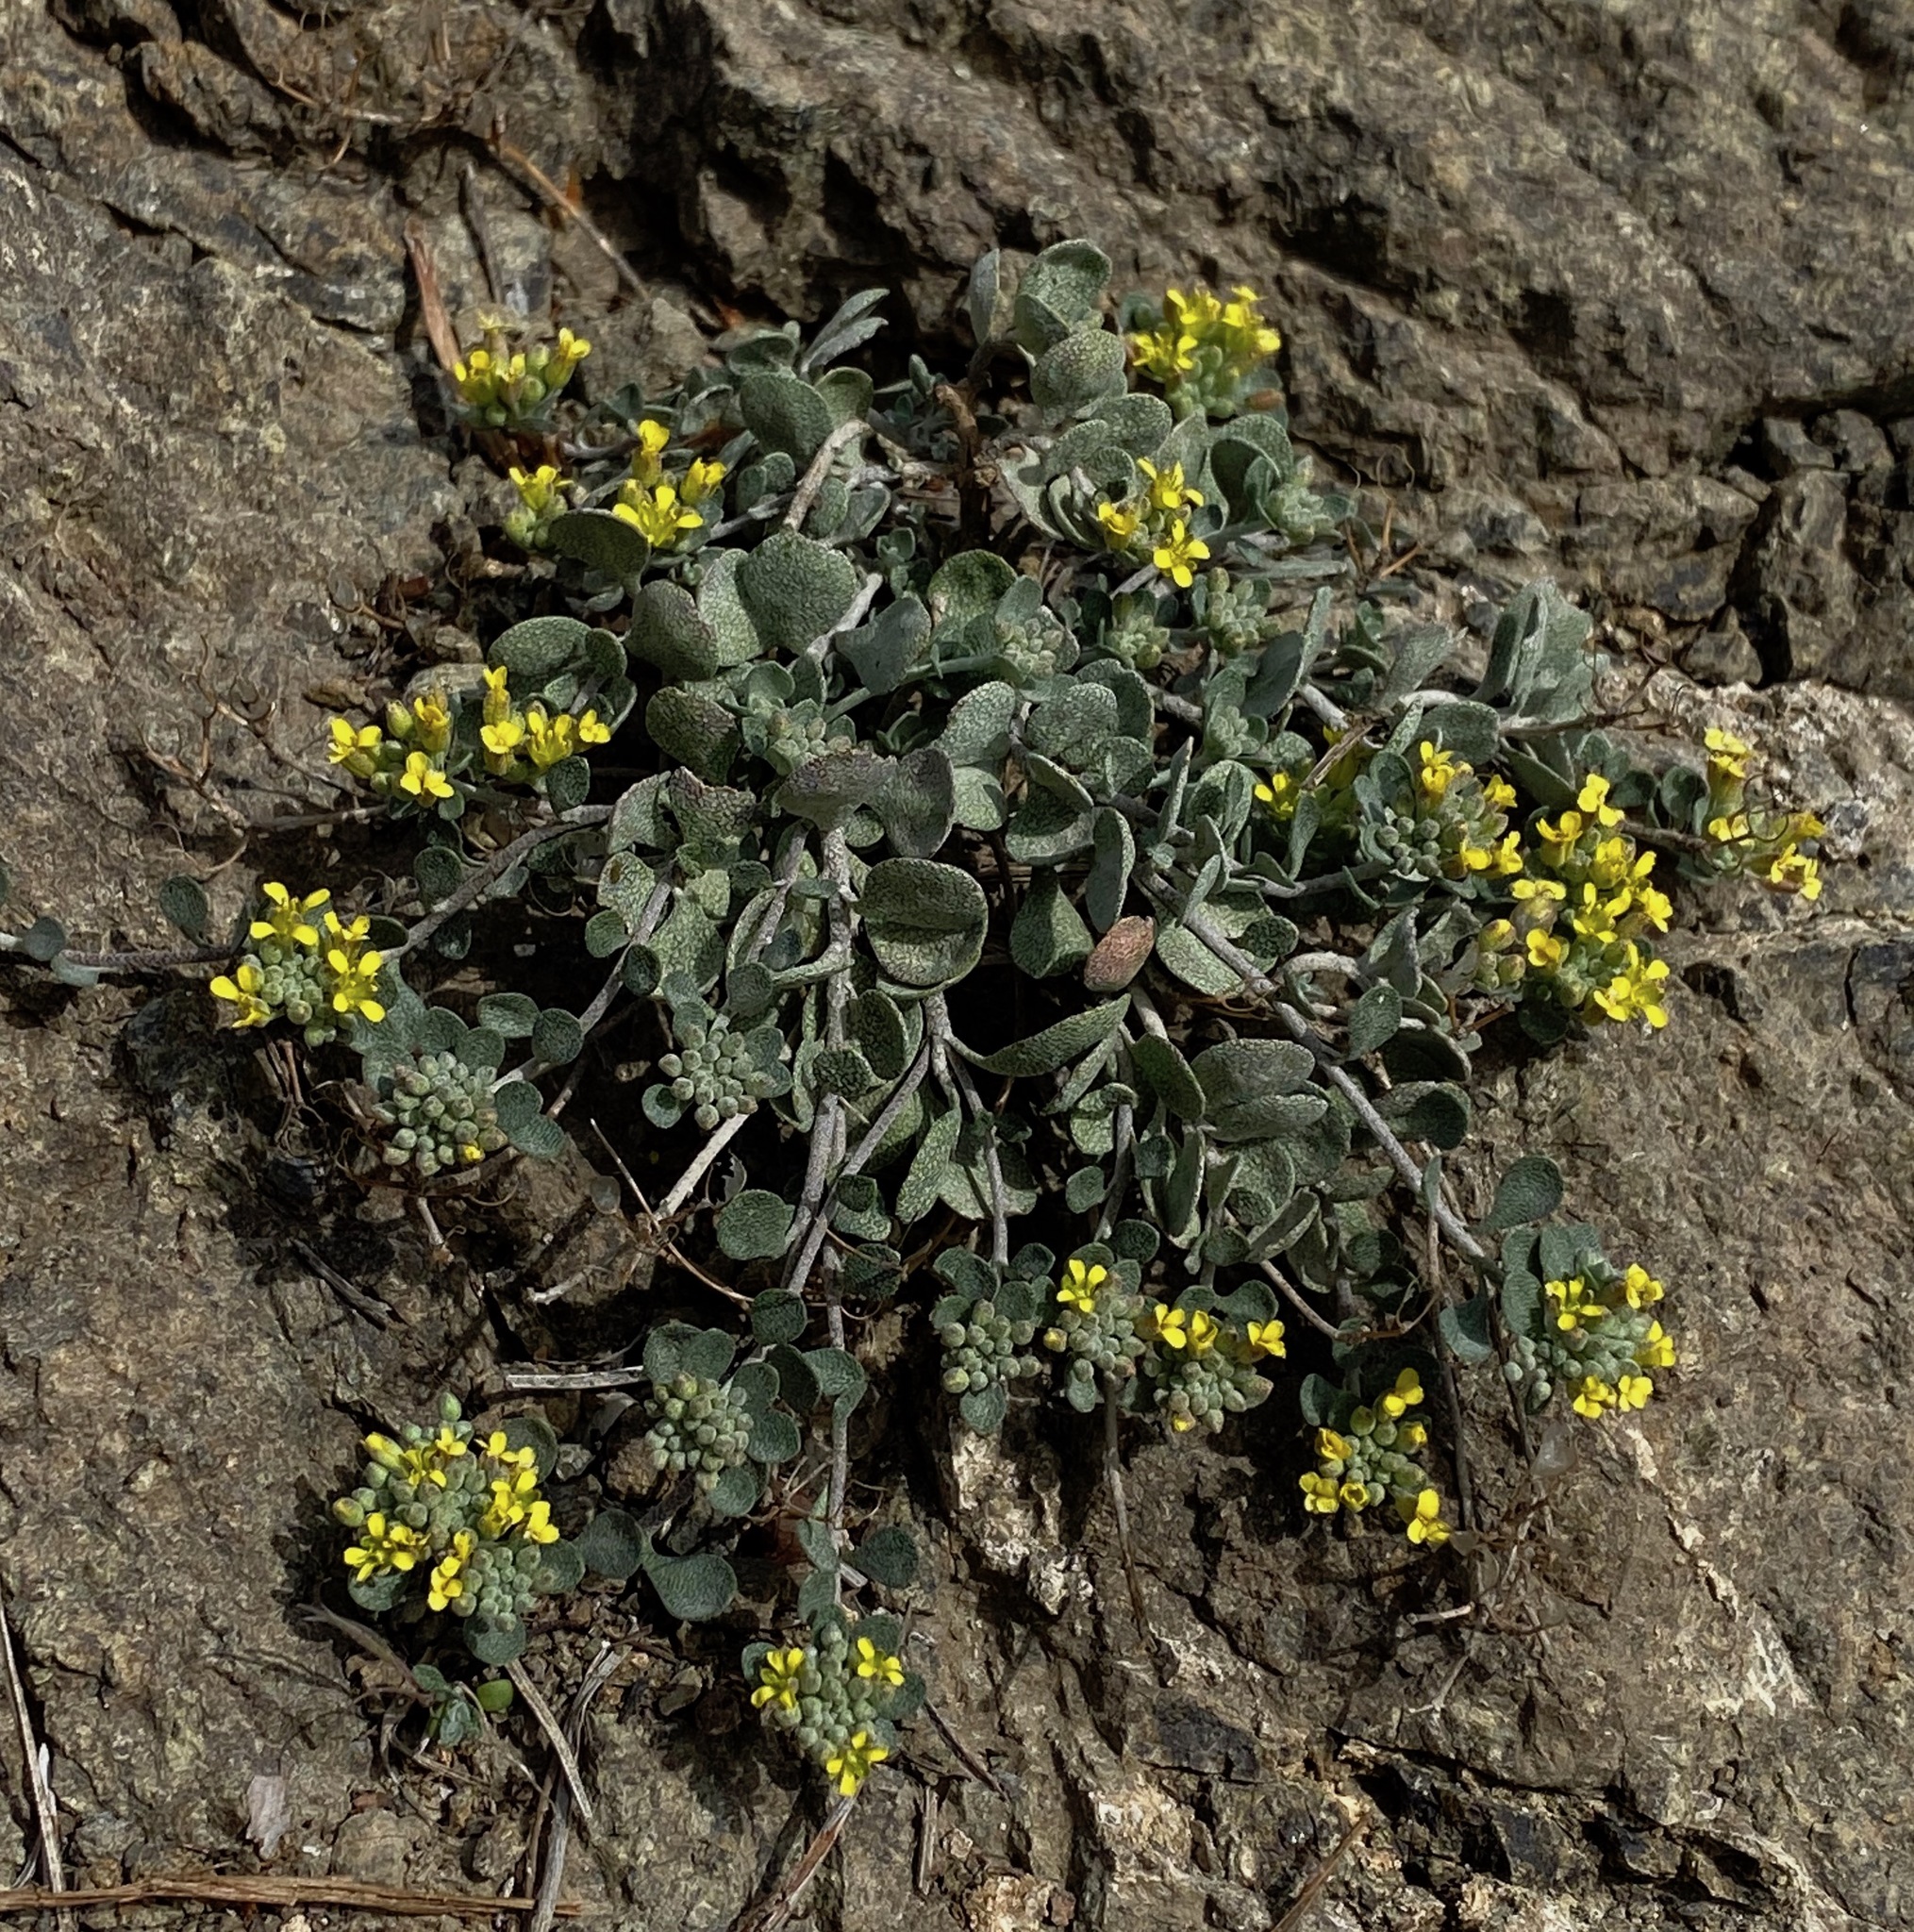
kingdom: Plantae
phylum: Tracheophyta
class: Magnoliopsida
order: Brassicales
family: Brassicaceae
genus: Odontarrhena
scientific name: Odontarrhena akamasica
